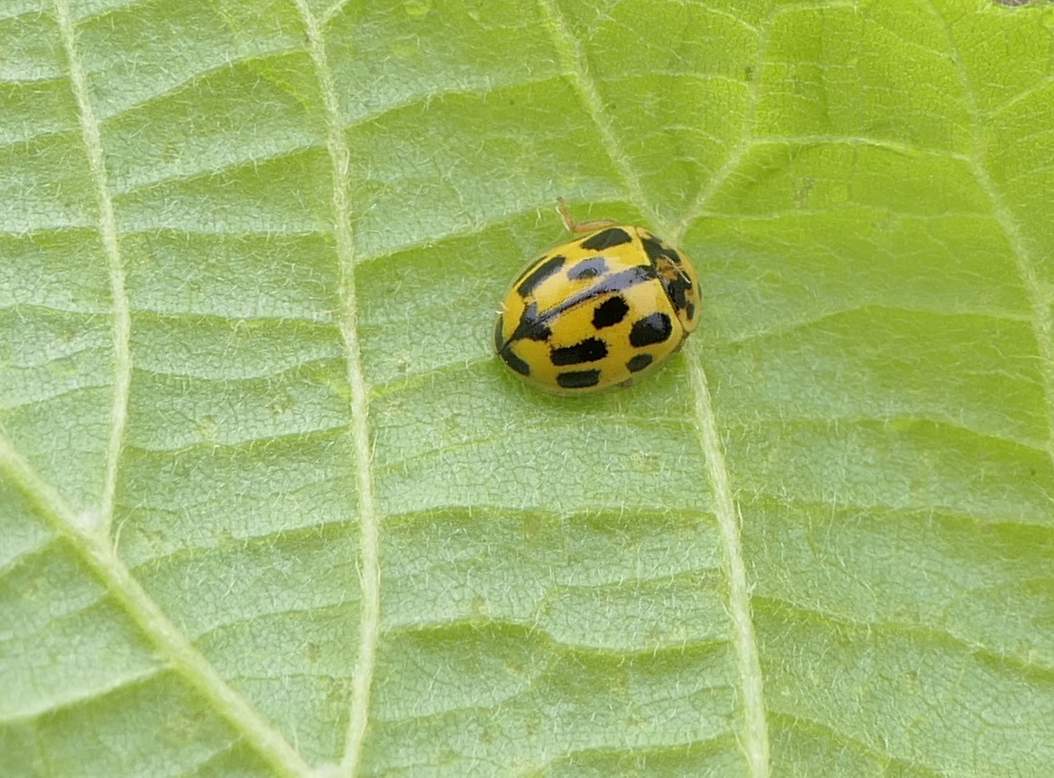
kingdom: Animalia
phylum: Arthropoda
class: Insecta
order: Coleoptera
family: Coccinellidae
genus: Propylaea
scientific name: Propylaea quatuordecimpunctata
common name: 14-spotted ladybird beetle
